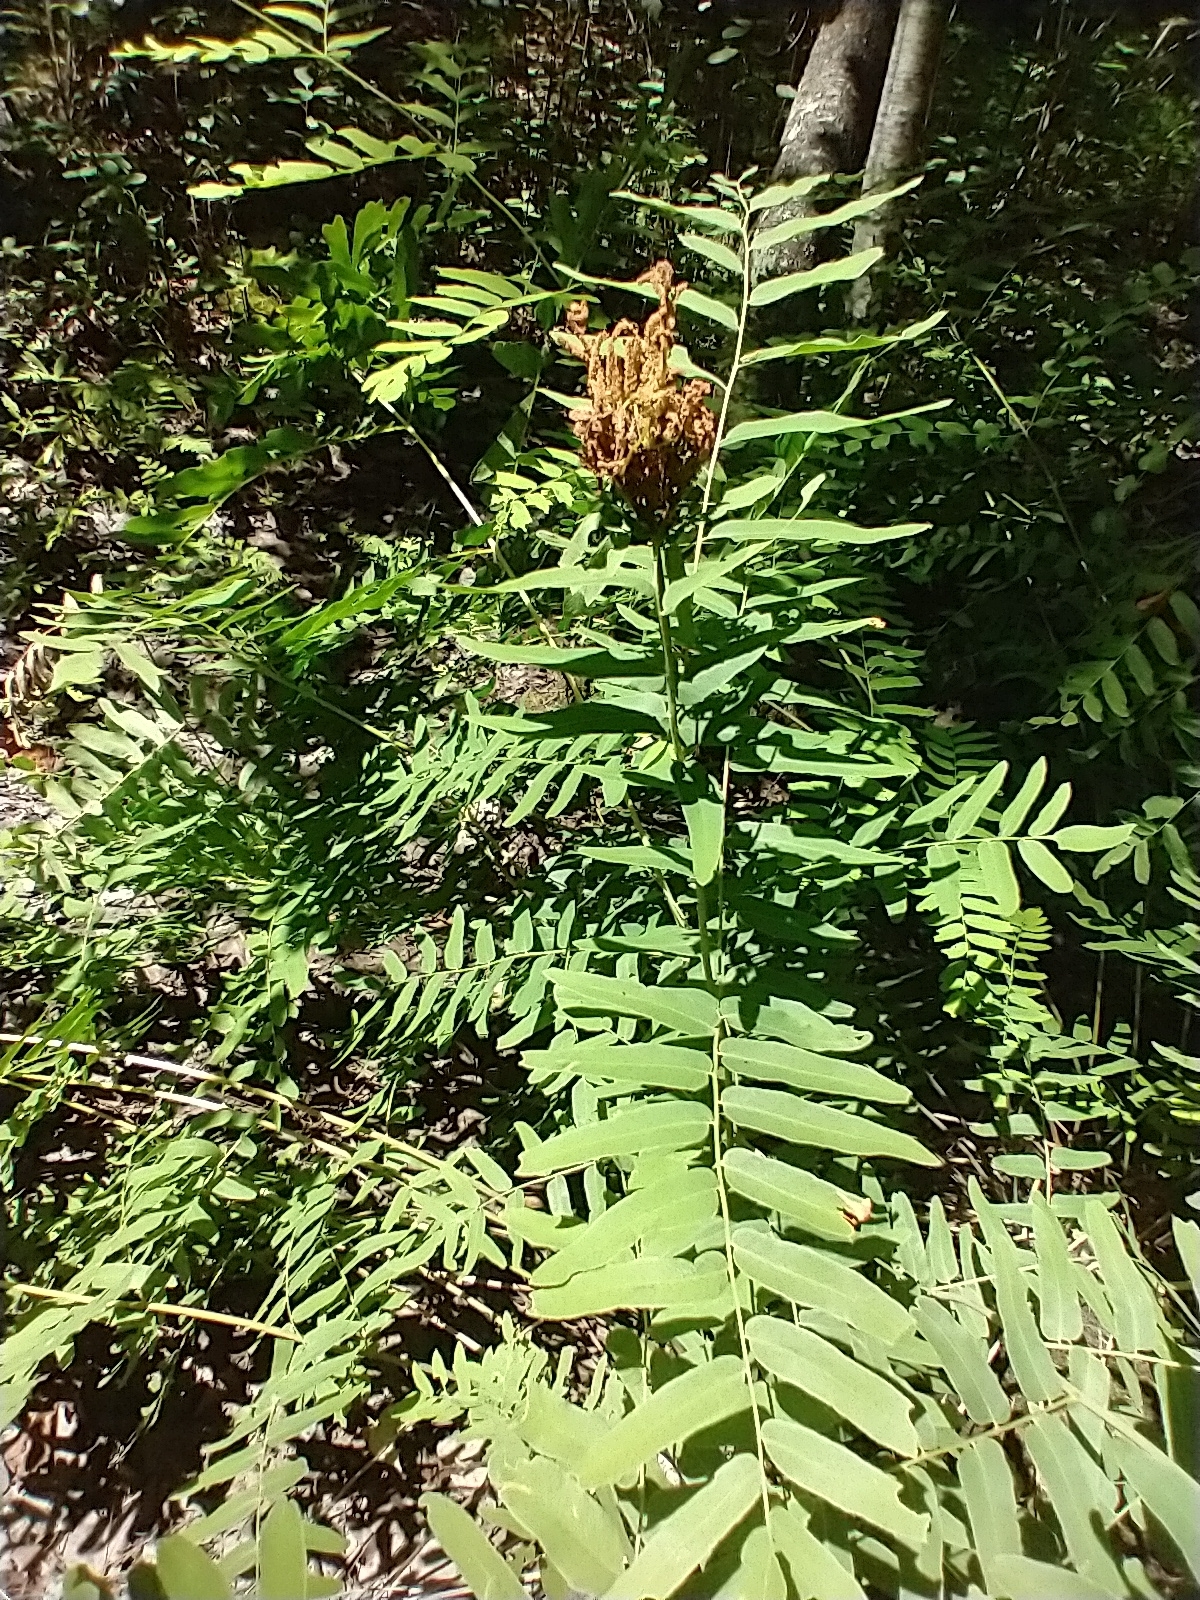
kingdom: Plantae
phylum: Tracheophyta
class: Polypodiopsida
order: Osmundales
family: Osmundaceae
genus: Osmunda
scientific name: Osmunda spectabilis
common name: American royal fern
